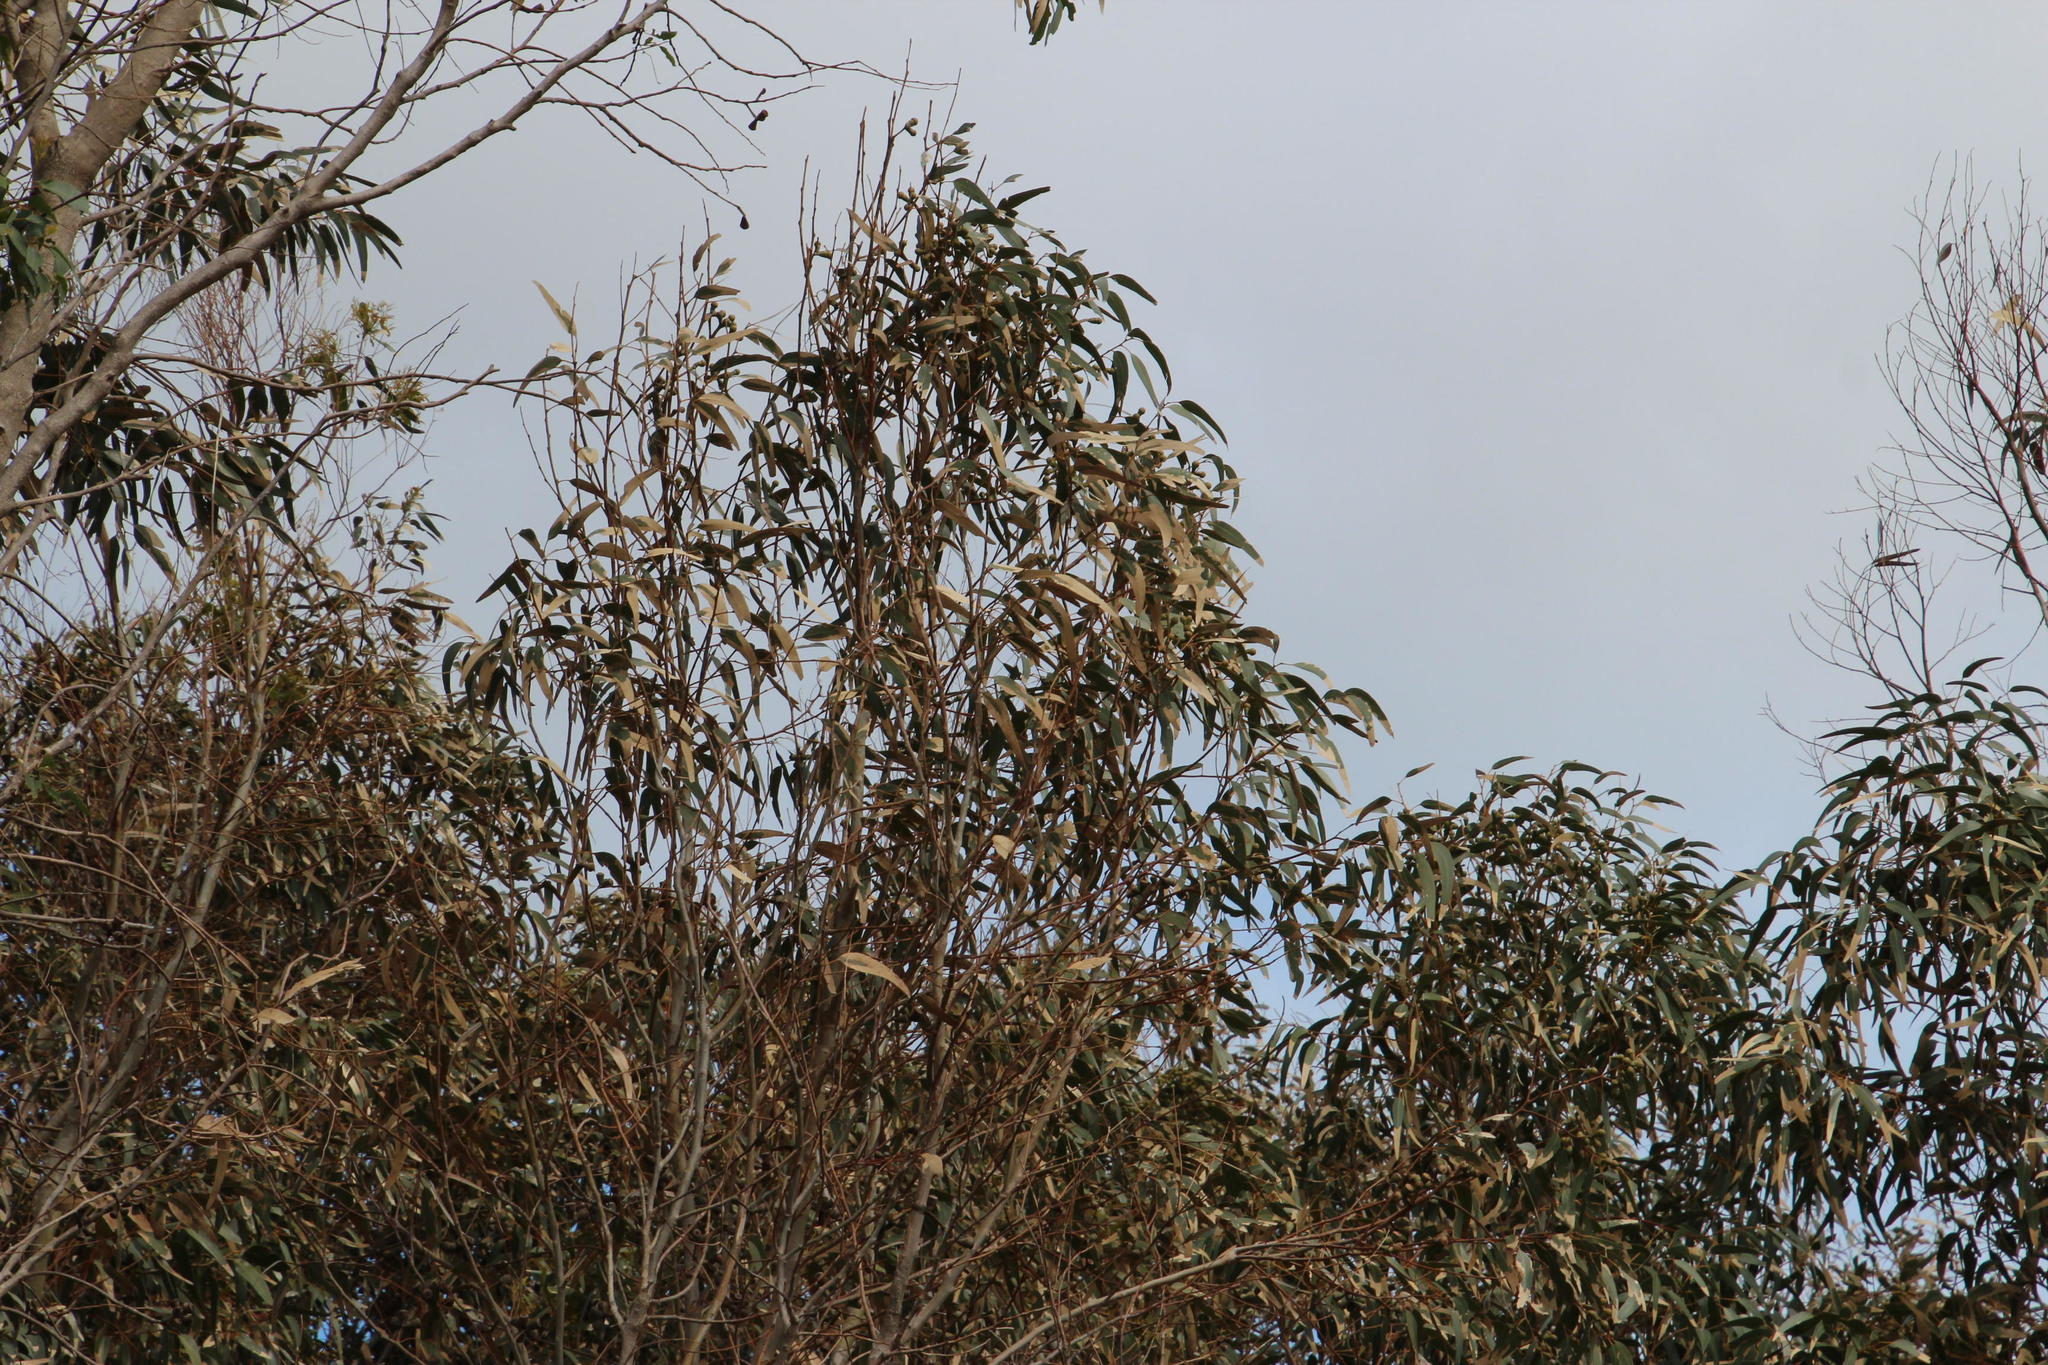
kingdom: Plantae
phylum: Tracheophyta
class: Magnoliopsida
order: Myrtales
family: Myrtaceae
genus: Eucalyptus
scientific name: Eucalyptus gomphocephala
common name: Tuart
